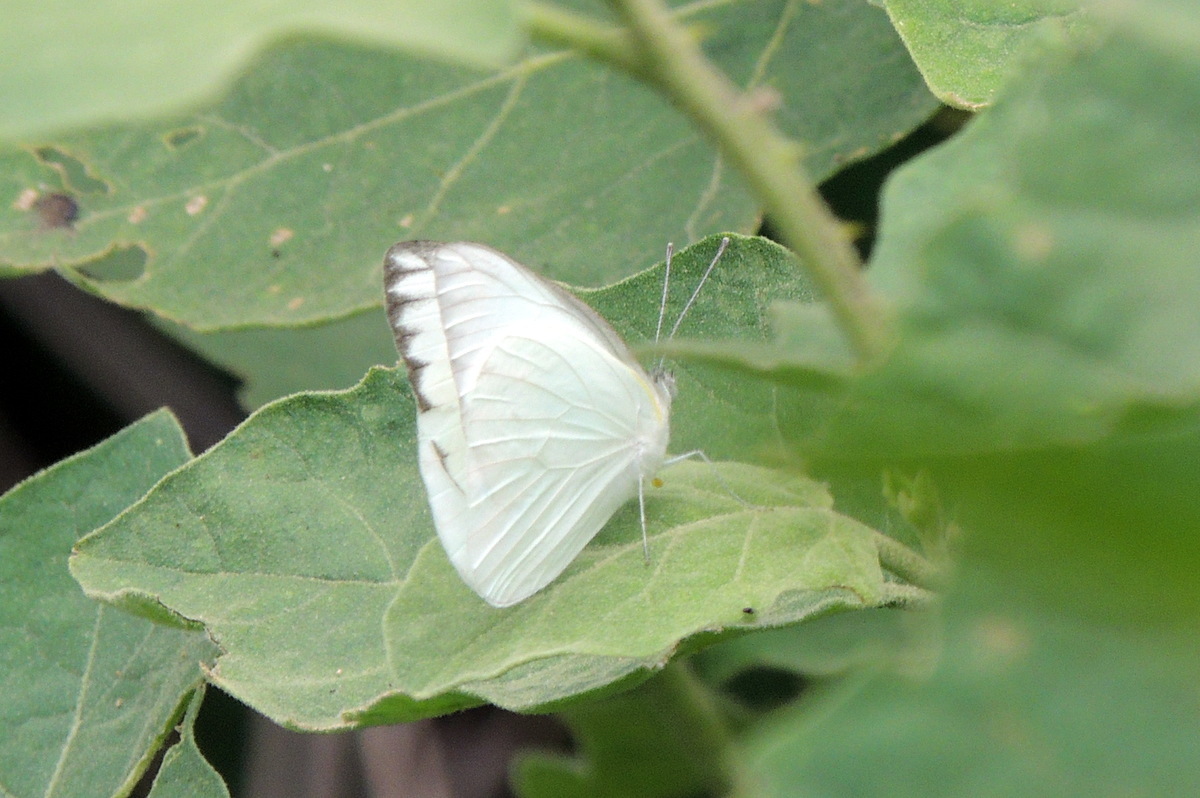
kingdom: Animalia
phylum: Arthropoda
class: Insecta
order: Lepidoptera
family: Pieridae
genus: Appias
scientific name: Appias libythea
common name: Striped albatross
